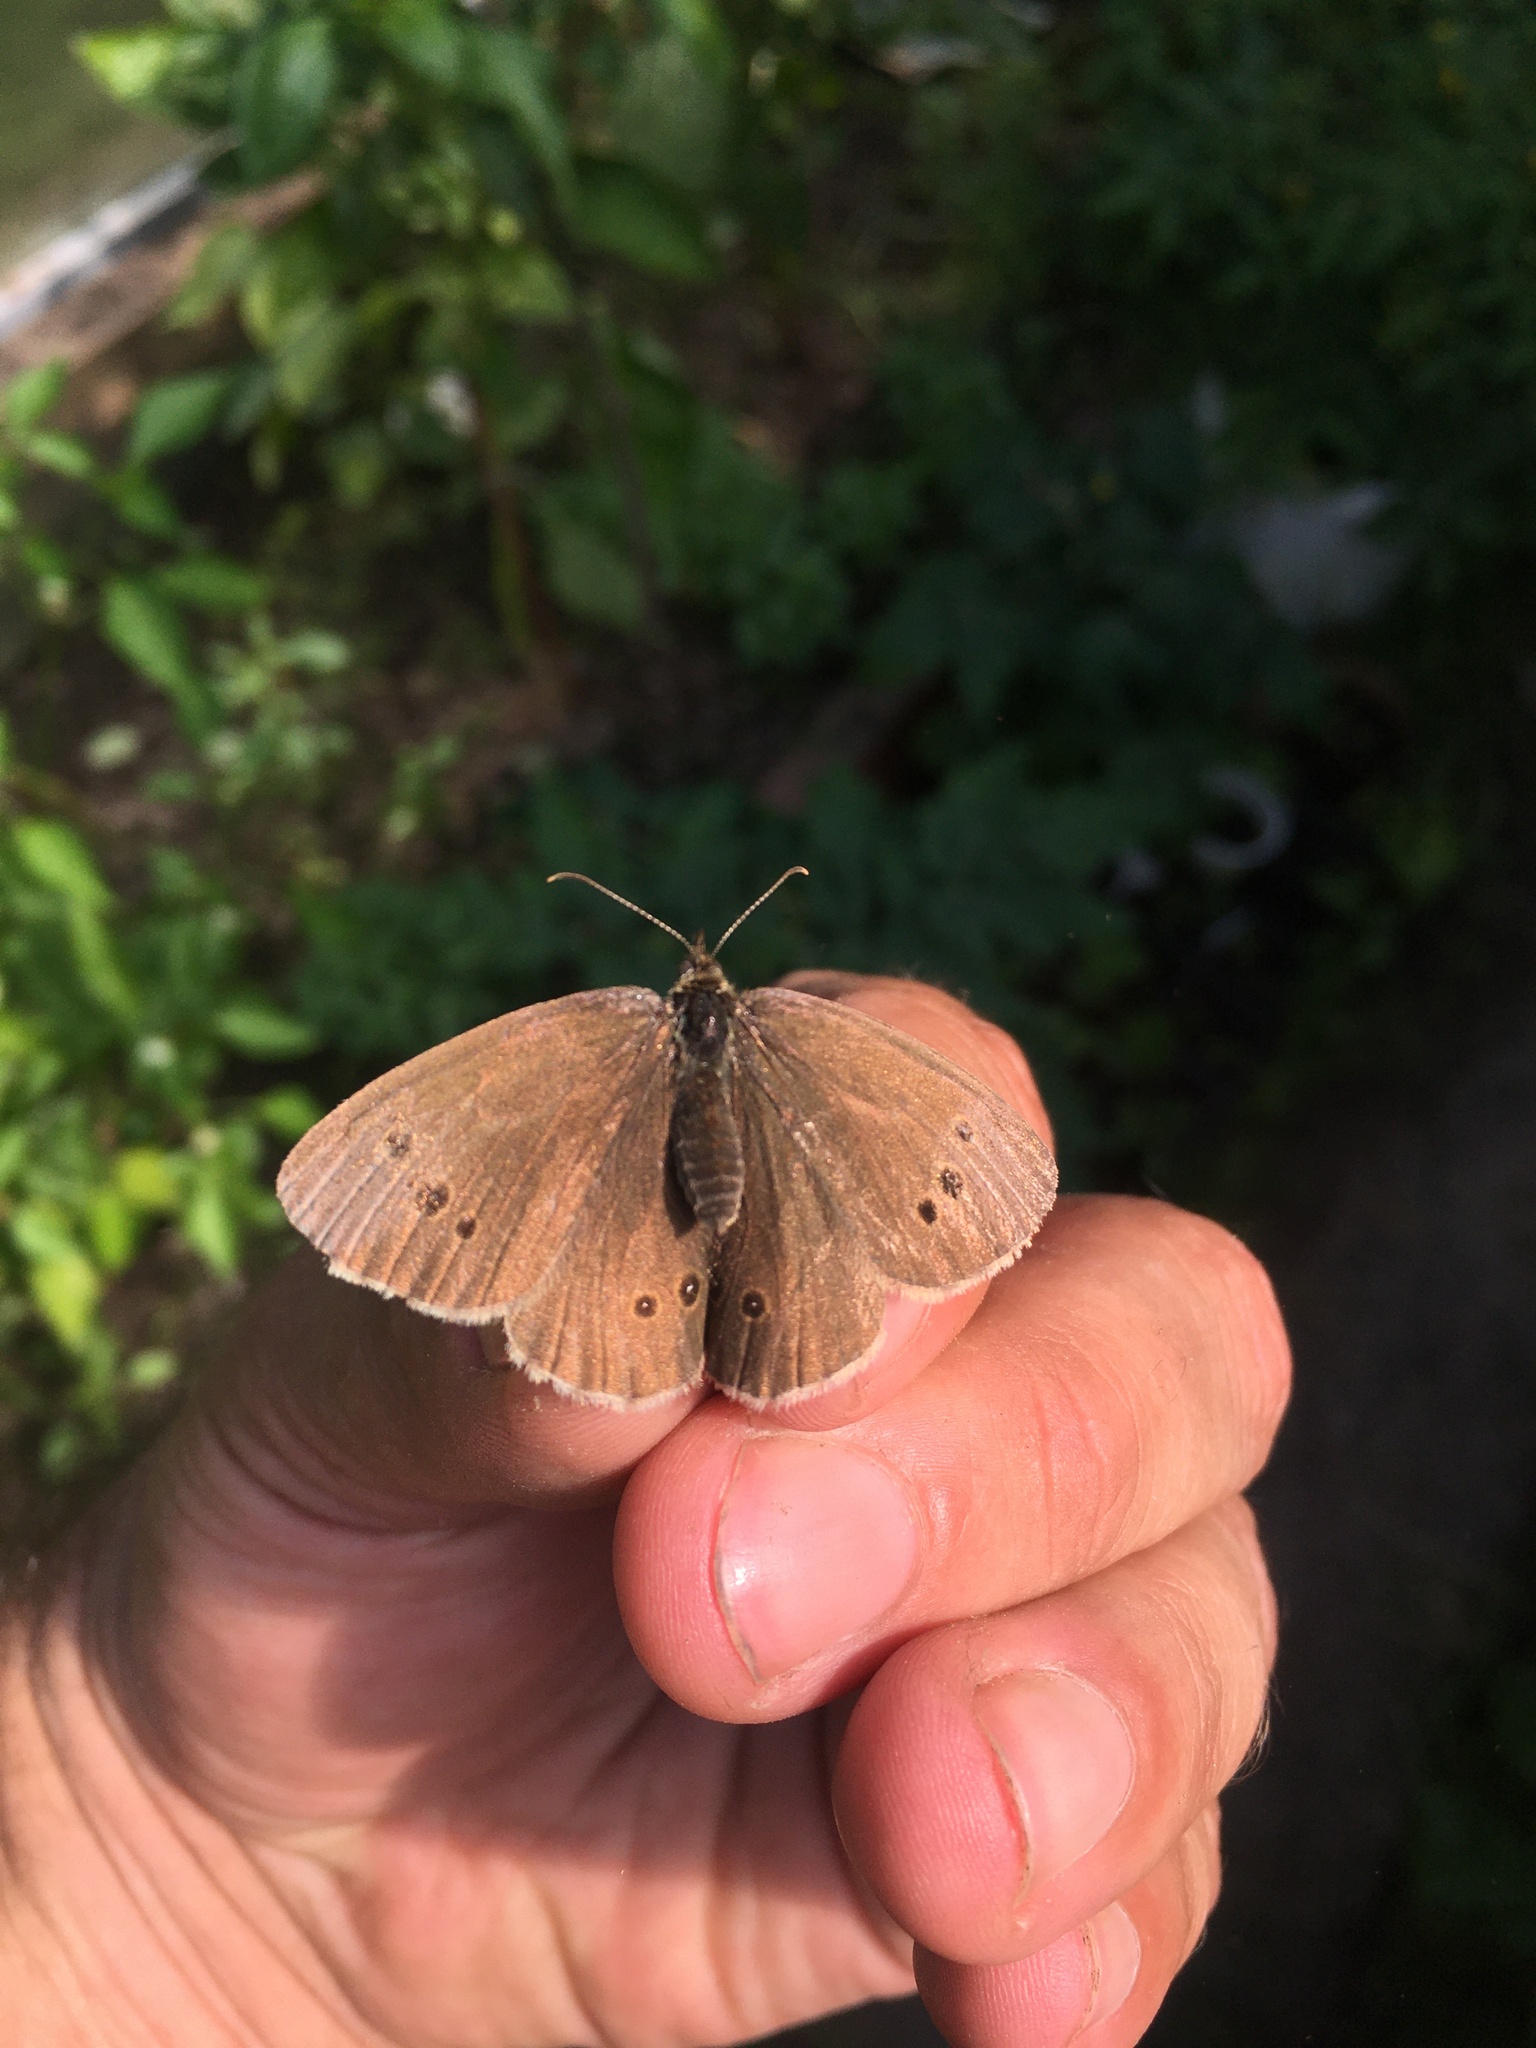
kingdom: Animalia
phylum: Arthropoda
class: Insecta
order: Lepidoptera
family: Nymphalidae
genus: Aphantopus
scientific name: Aphantopus hyperantus
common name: Ringlet
